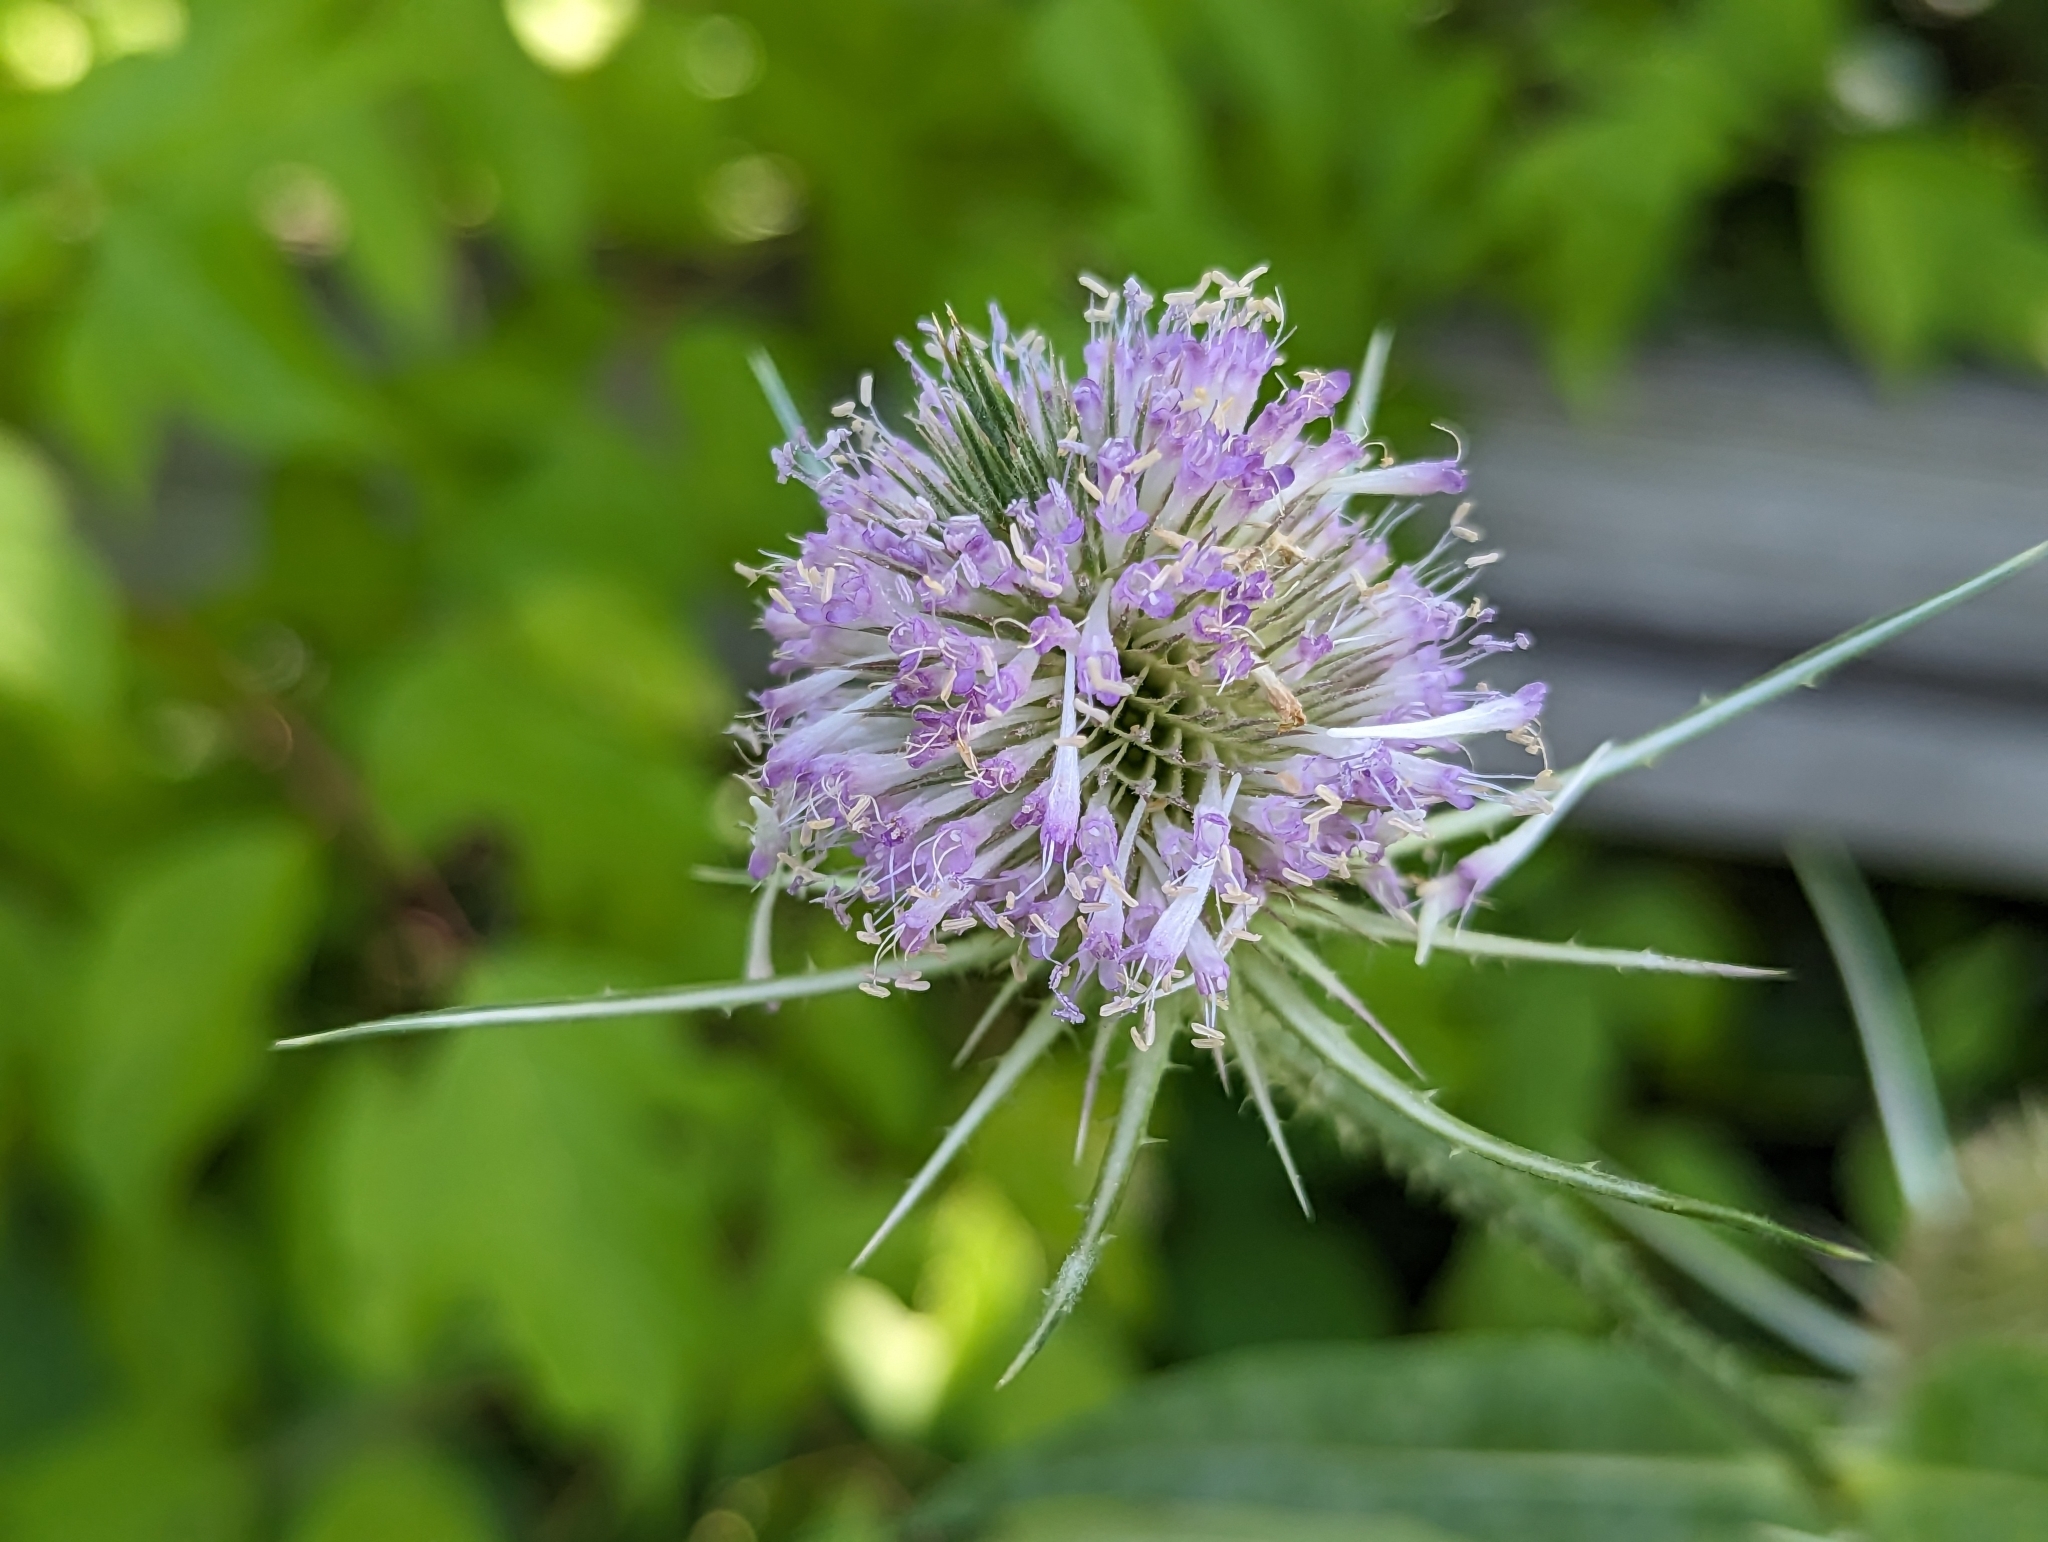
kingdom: Plantae
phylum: Tracheophyta
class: Magnoliopsida
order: Dipsacales
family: Caprifoliaceae
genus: Dipsacus
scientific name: Dipsacus fullonum
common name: Teasel
